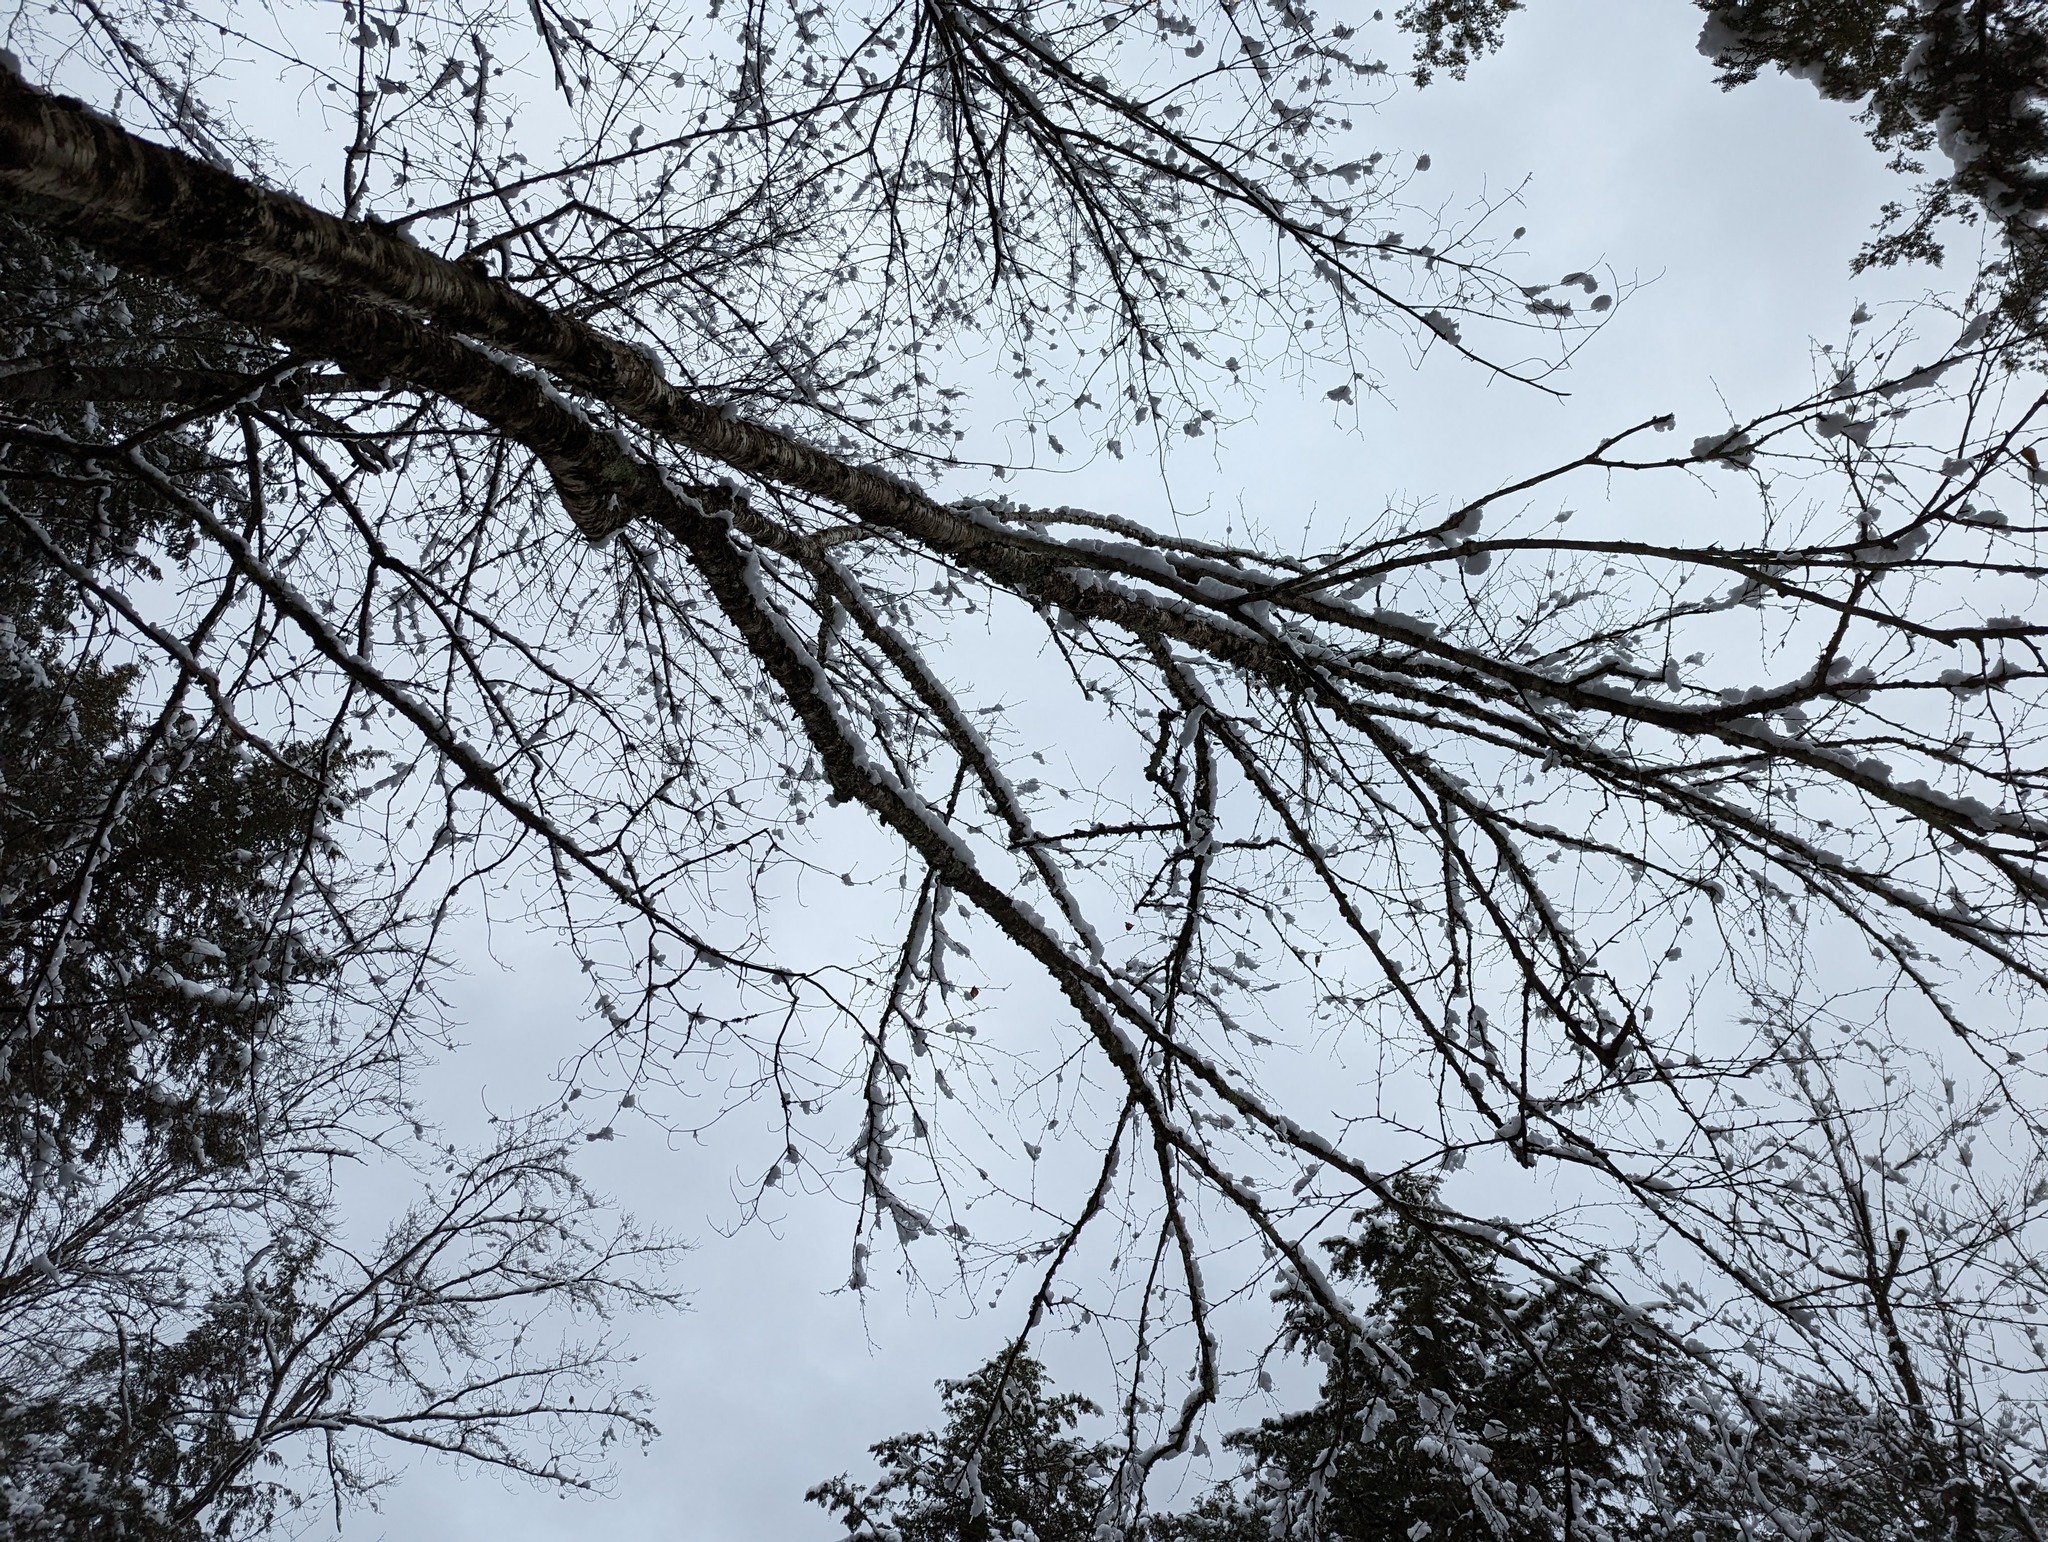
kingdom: Plantae
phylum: Tracheophyta
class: Magnoliopsida
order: Fagales
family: Betulaceae
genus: Betula
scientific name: Betula alleghaniensis
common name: Yellow birch
